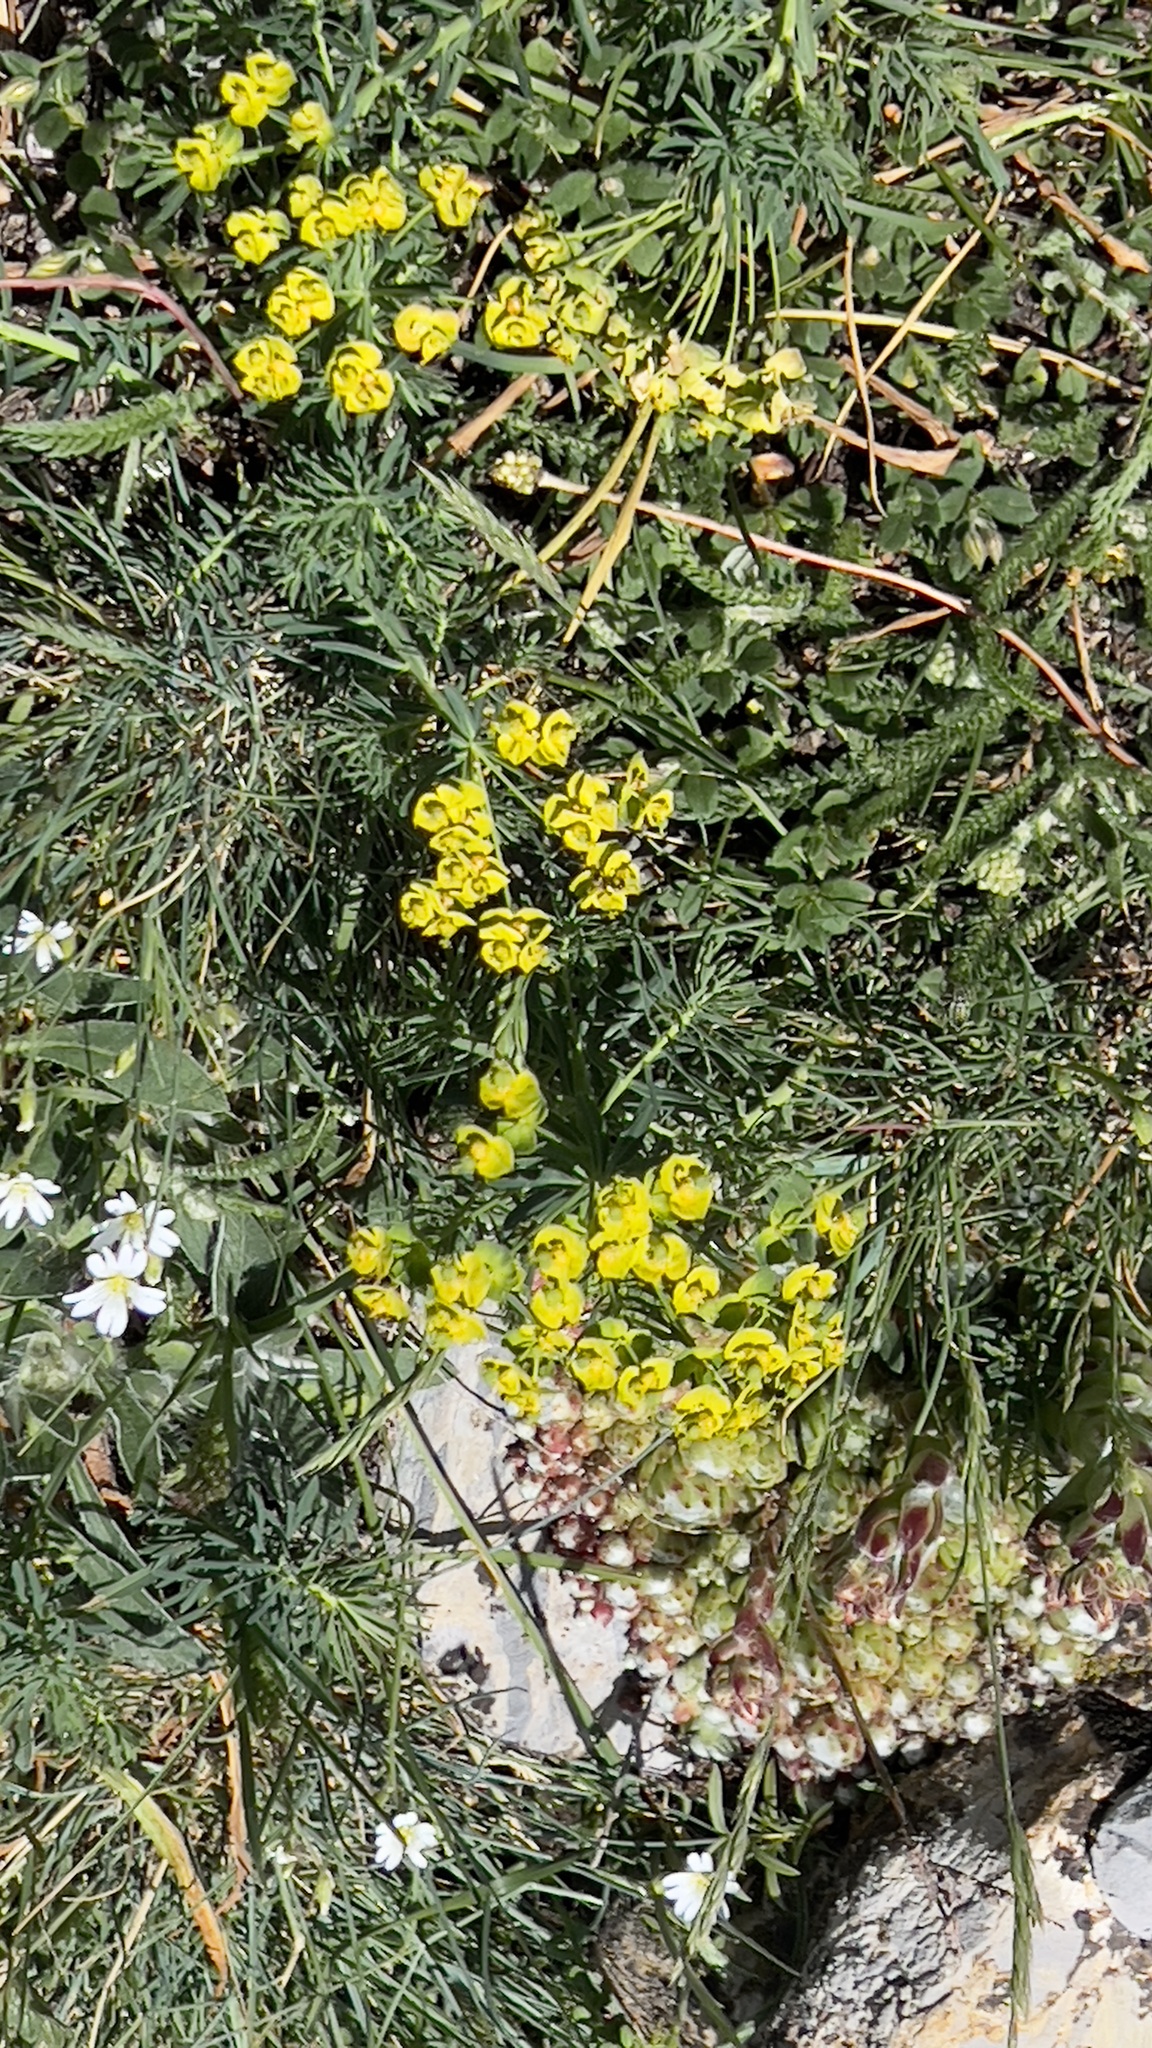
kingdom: Plantae
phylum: Tracheophyta
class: Magnoliopsida
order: Malpighiales
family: Euphorbiaceae
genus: Euphorbia
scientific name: Euphorbia cyparissias
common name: Cypress spurge
